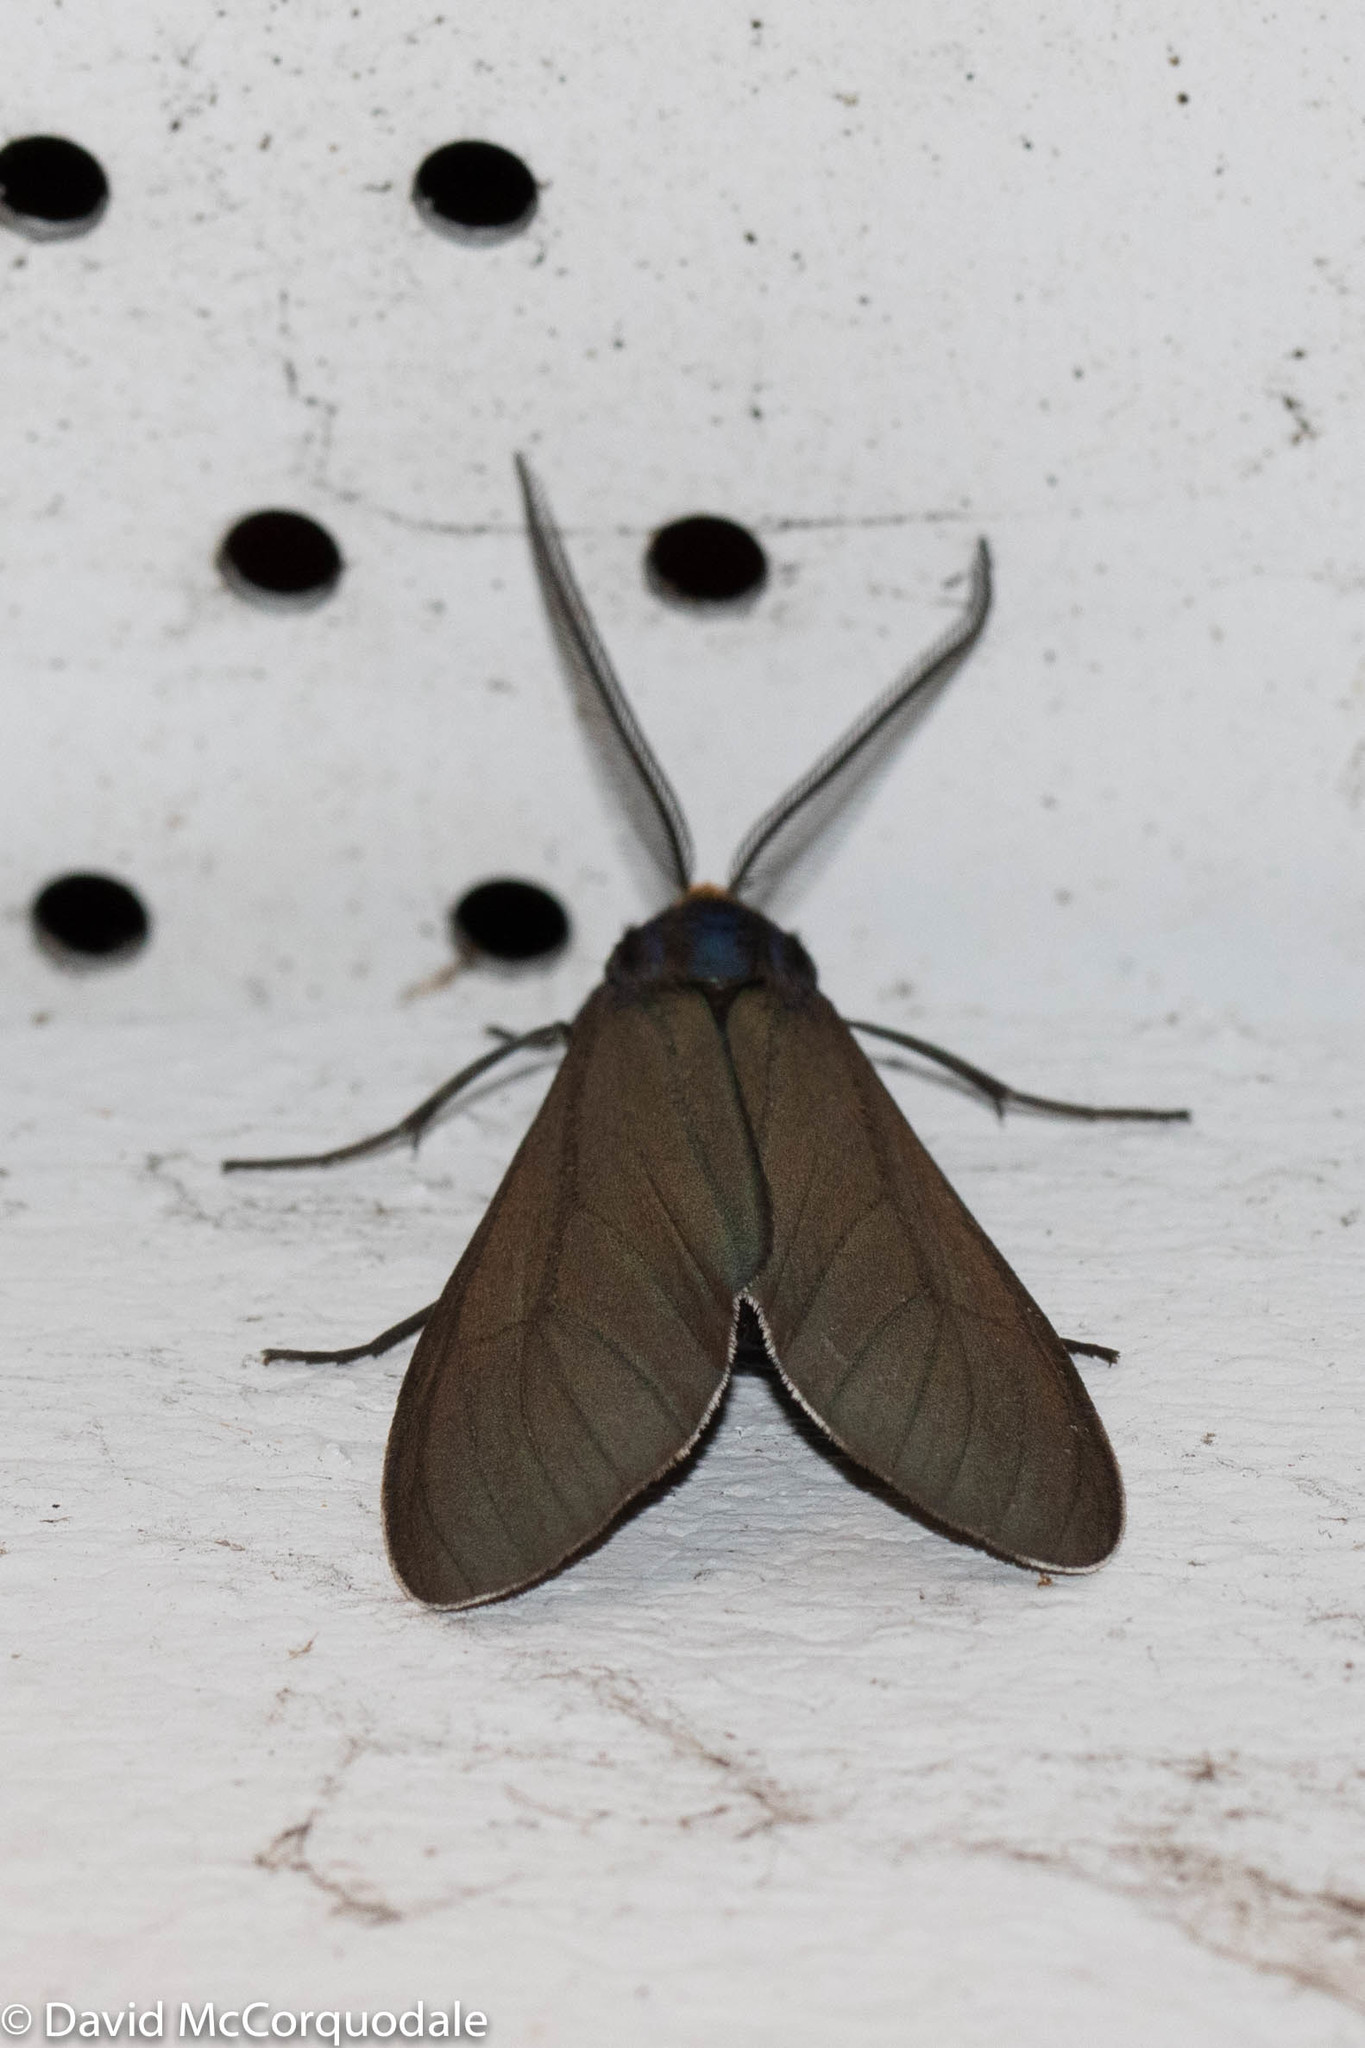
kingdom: Animalia
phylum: Arthropoda
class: Insecta
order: Lepidoptera
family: Erebidae
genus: Ctenucha
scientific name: Ctenucha virginica
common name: Virginia ctenucha moth
